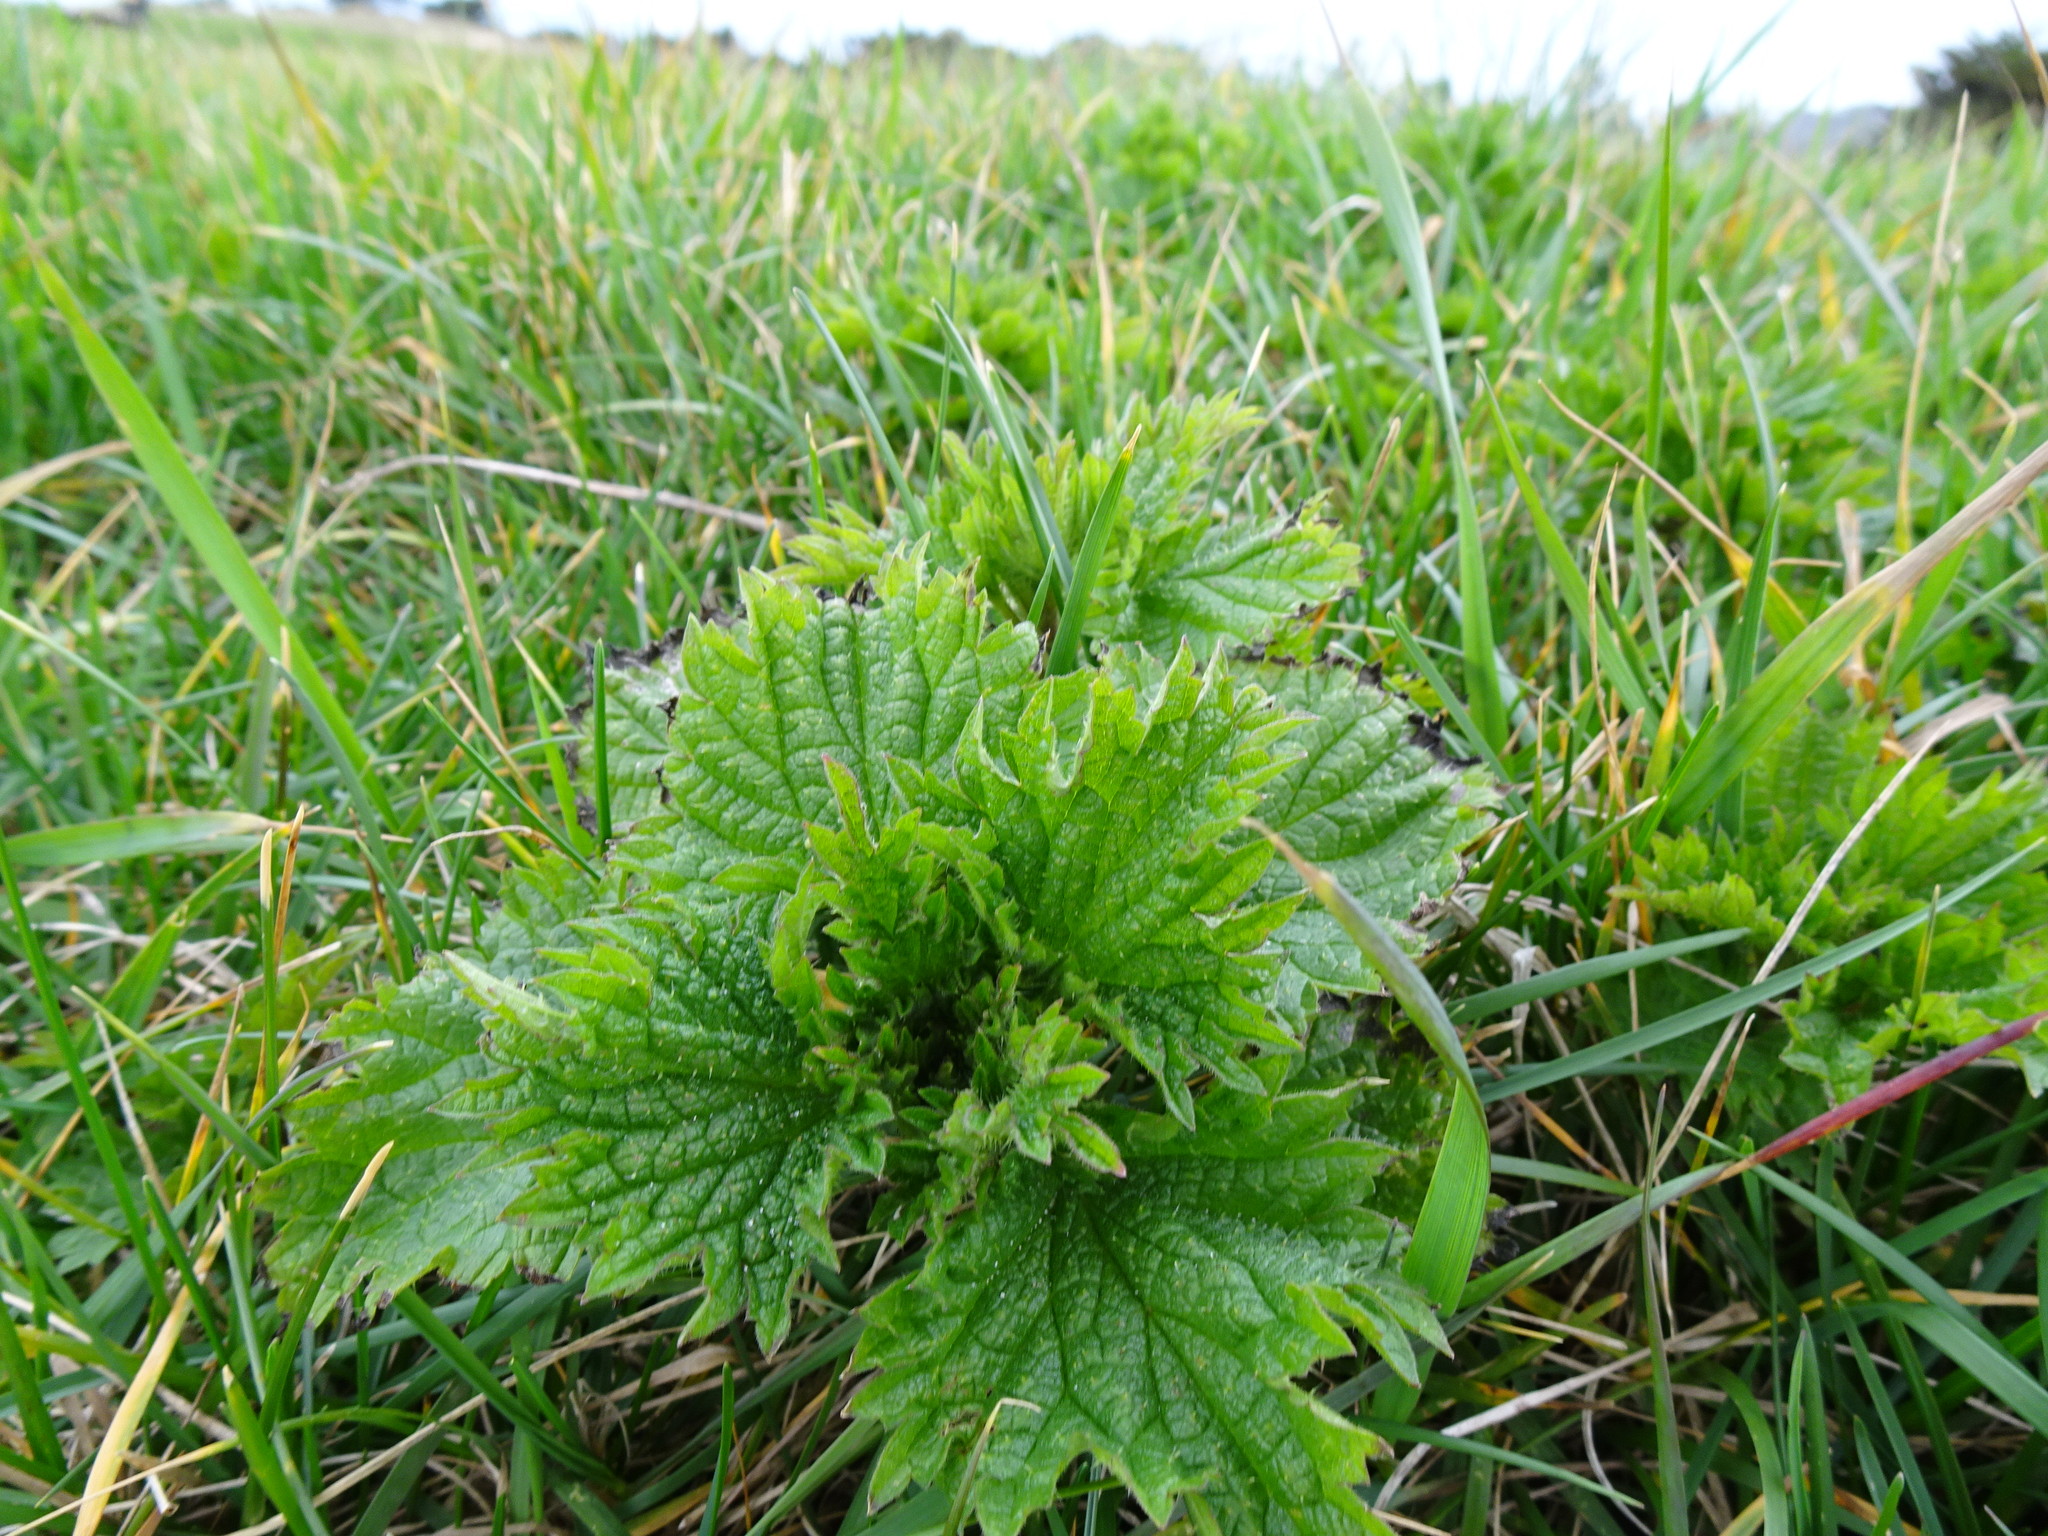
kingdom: Plantae
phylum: Tracheophyta
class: Magnoliopsida
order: Rosales
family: Urticaceae
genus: Urtica
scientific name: Urtica dioica
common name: Common nettle
